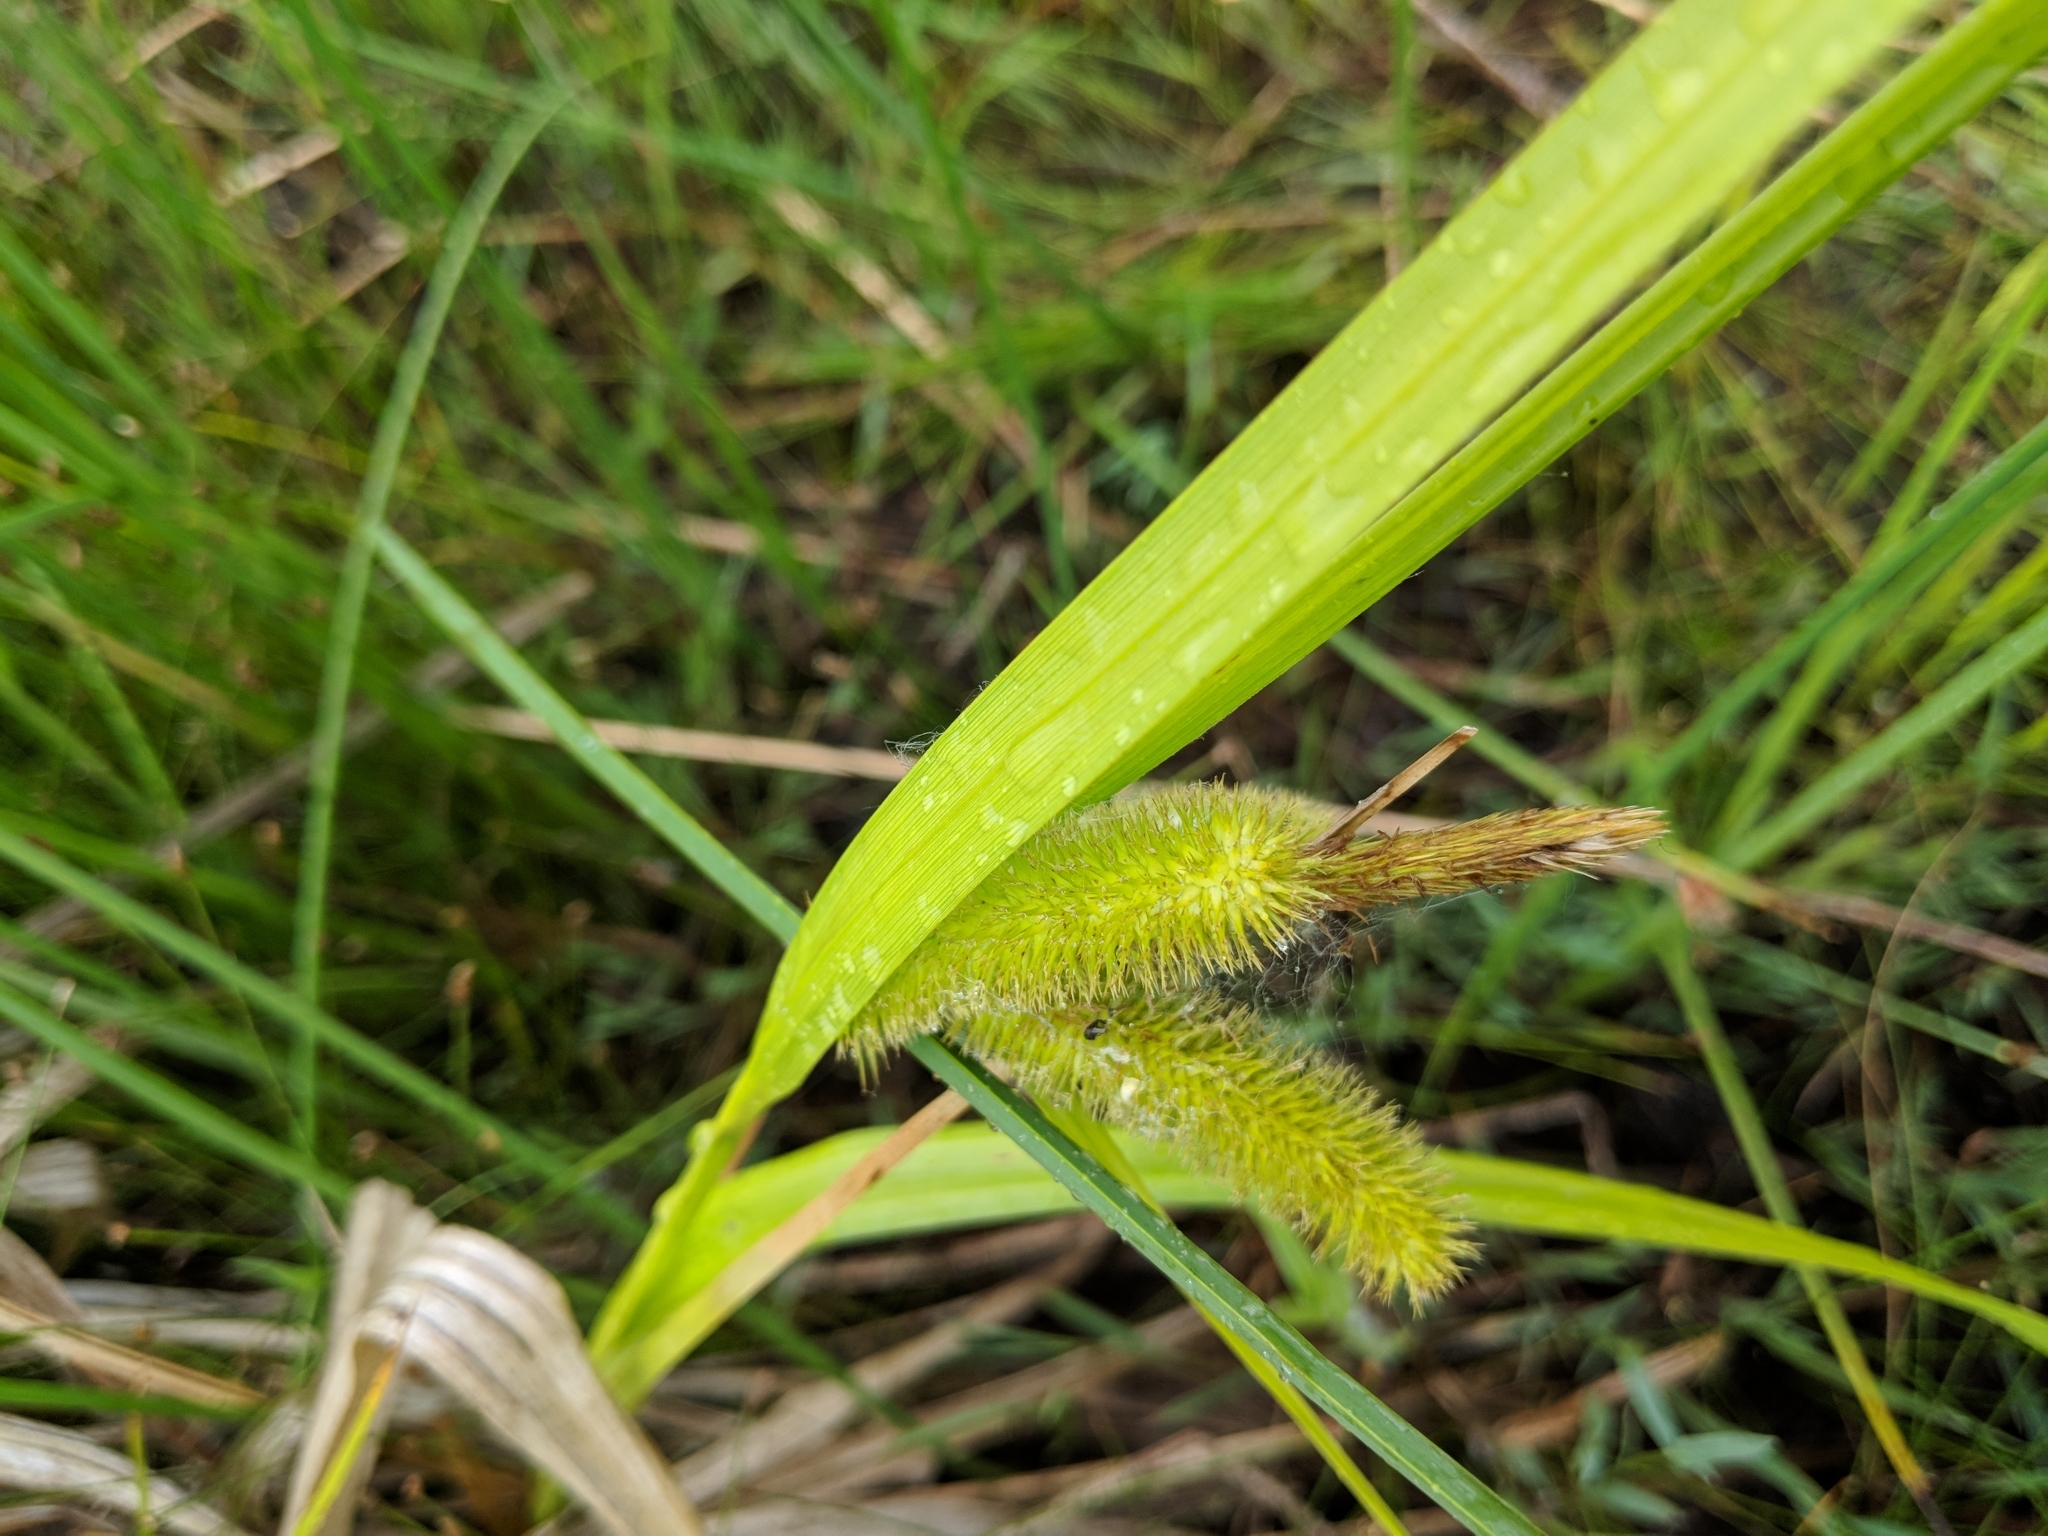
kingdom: Plantae
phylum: Tracheophyta
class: Liliopsida
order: Poales
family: Cyperaceae
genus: Carex
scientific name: Carex comosa
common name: Bristly sedge
